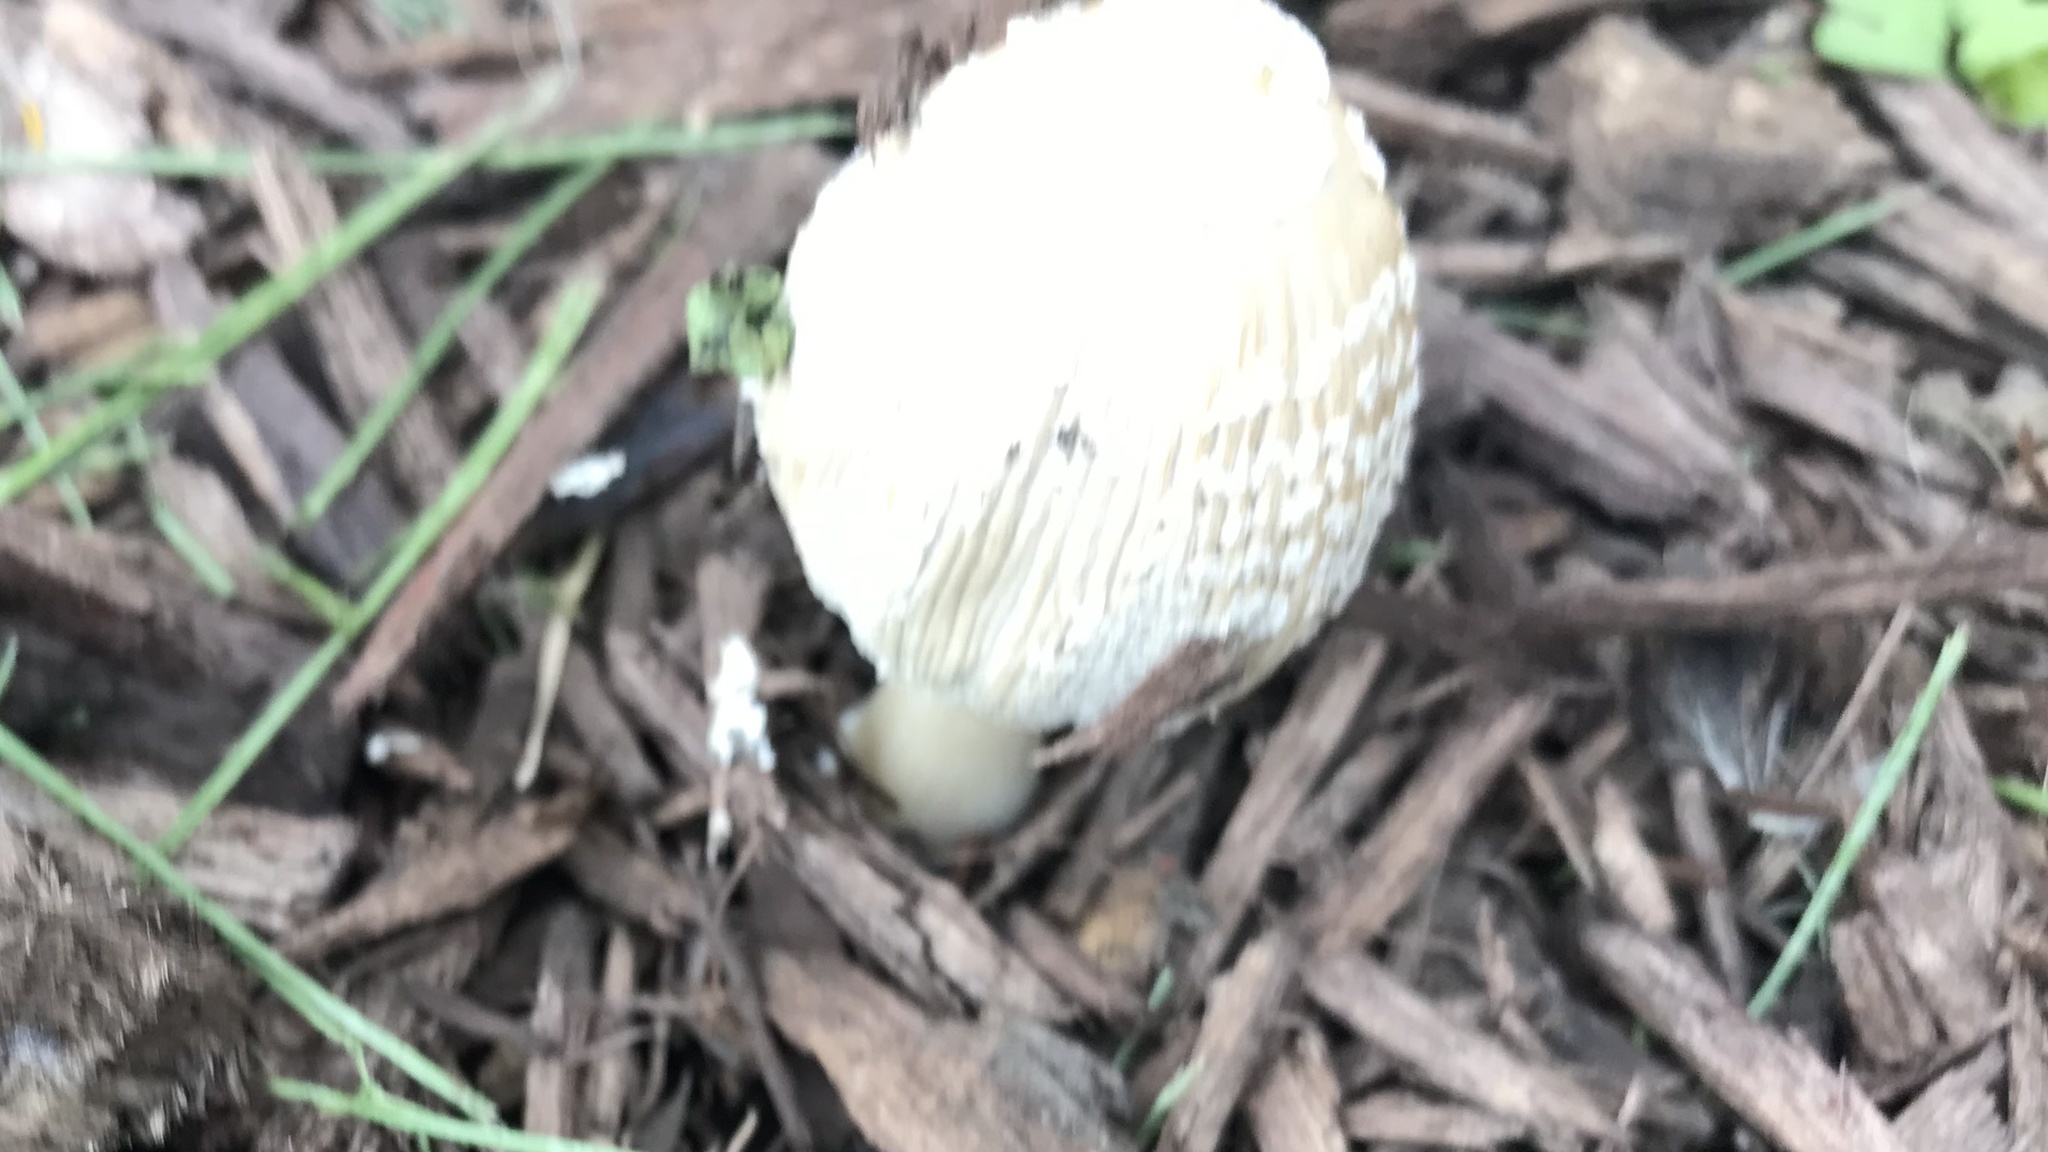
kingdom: Fungi
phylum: Basidiomycota
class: Agaricomycetes
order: Agaricales
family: Psathyrellaceae
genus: Coprinellus
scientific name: Coprinellus flocculosus
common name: Flocculose inkcap
